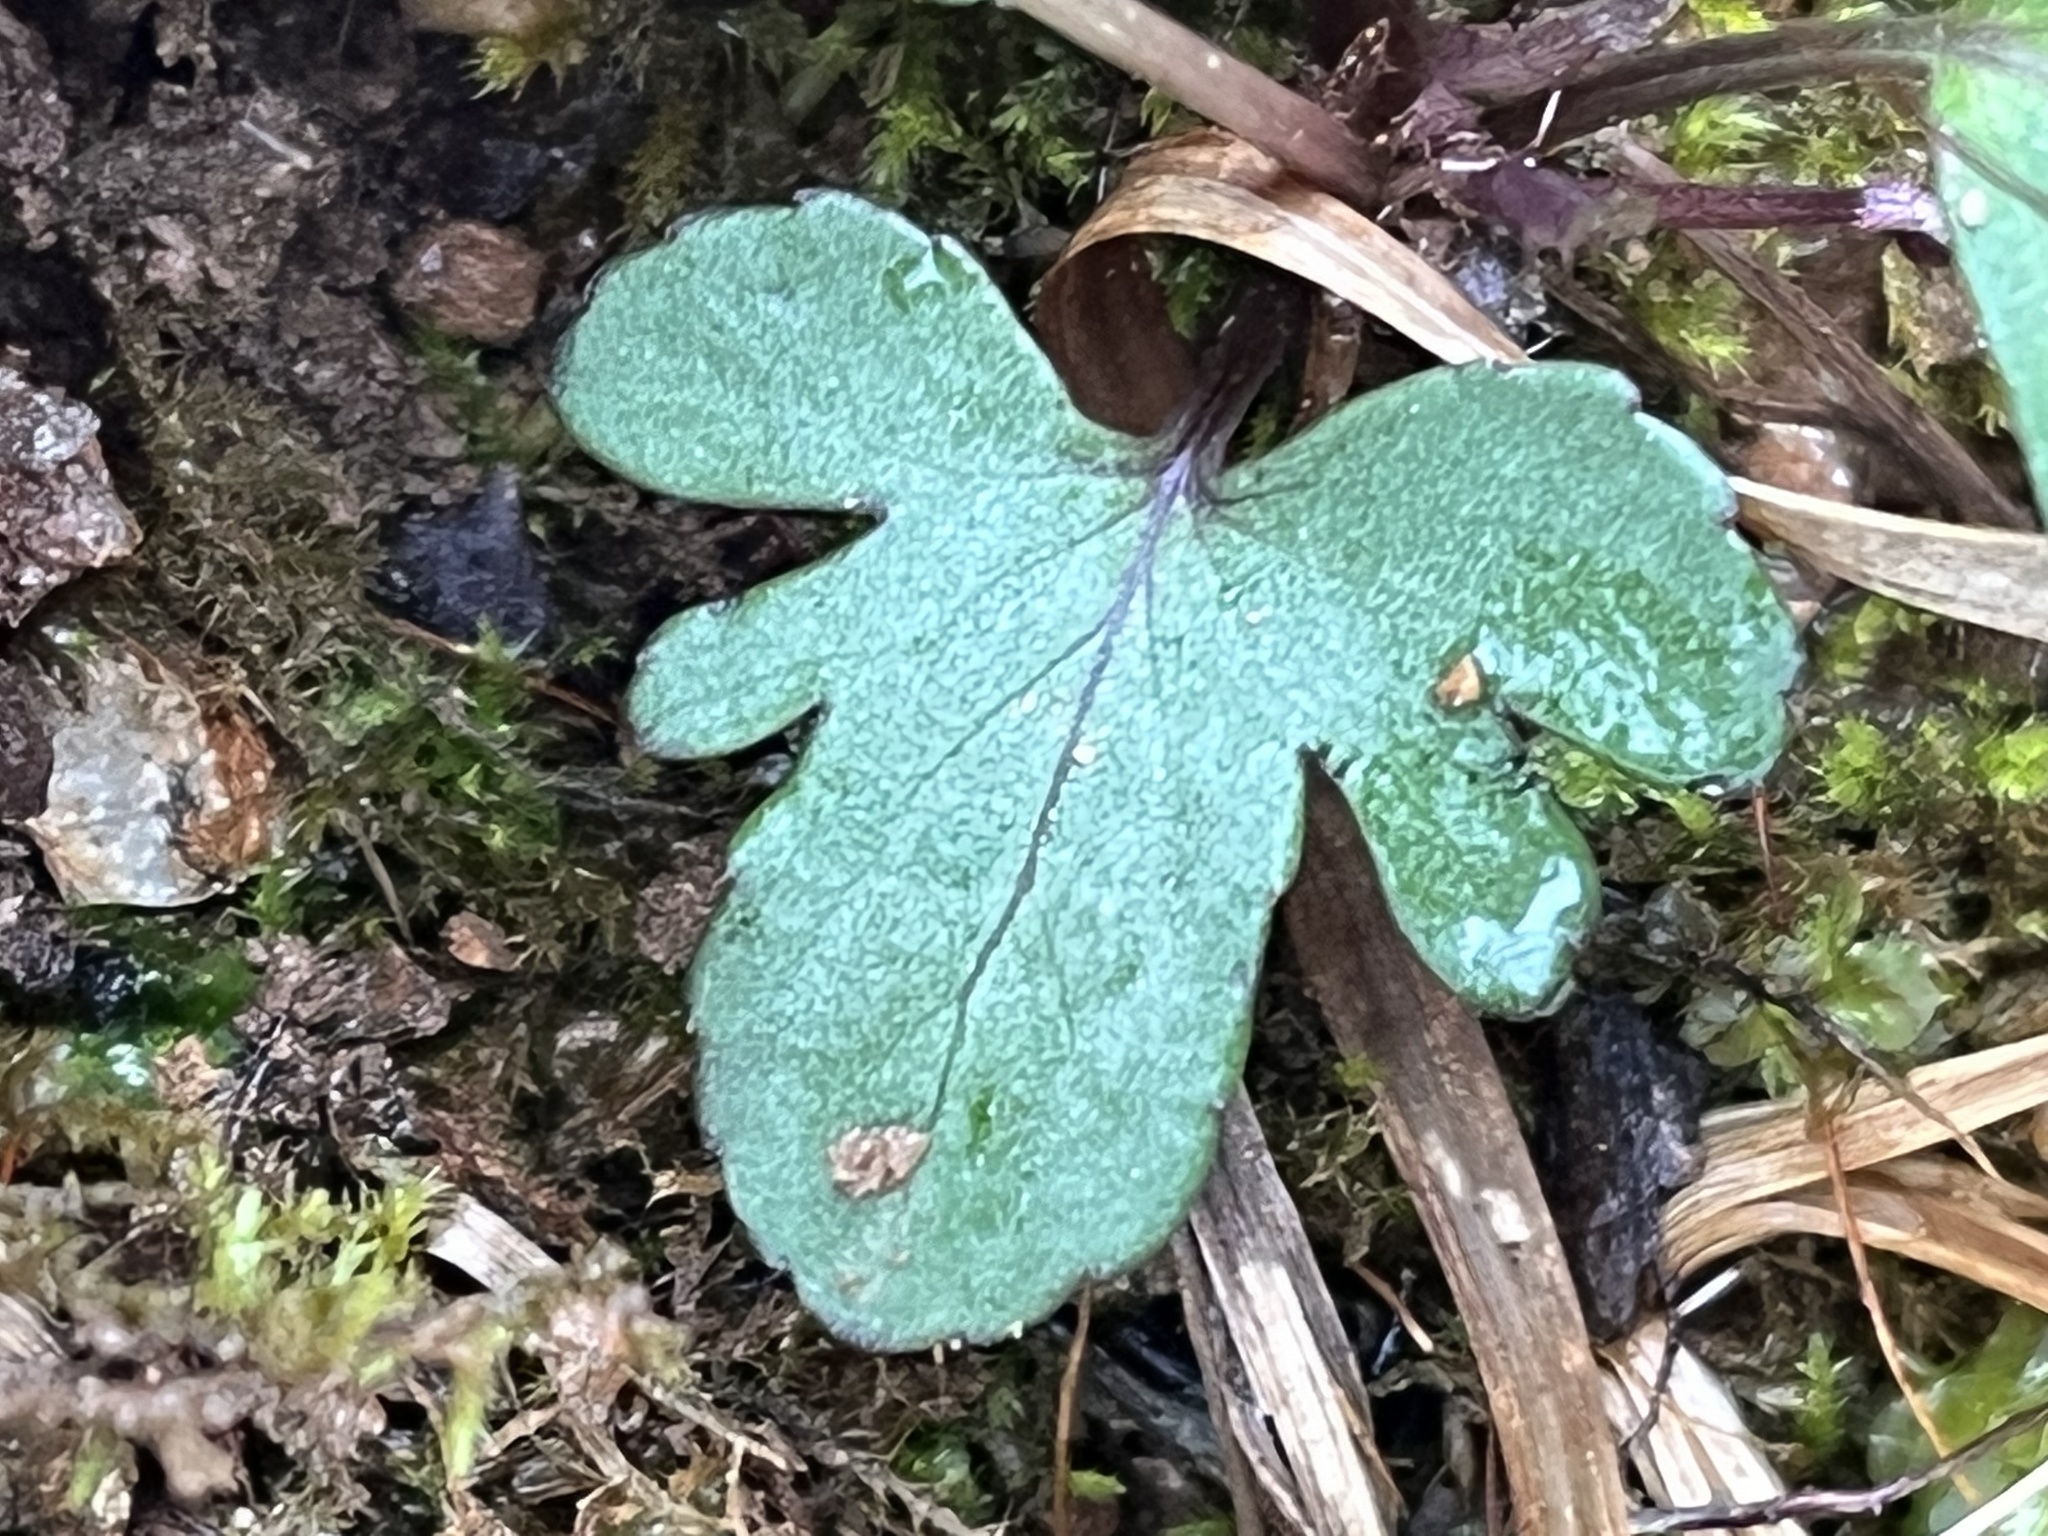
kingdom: Plantae
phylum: Tracheophyta
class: Magnoliopsida
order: Malpighiales
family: Violaceae
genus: Viola
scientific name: Viola palmata
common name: Early blue violet
